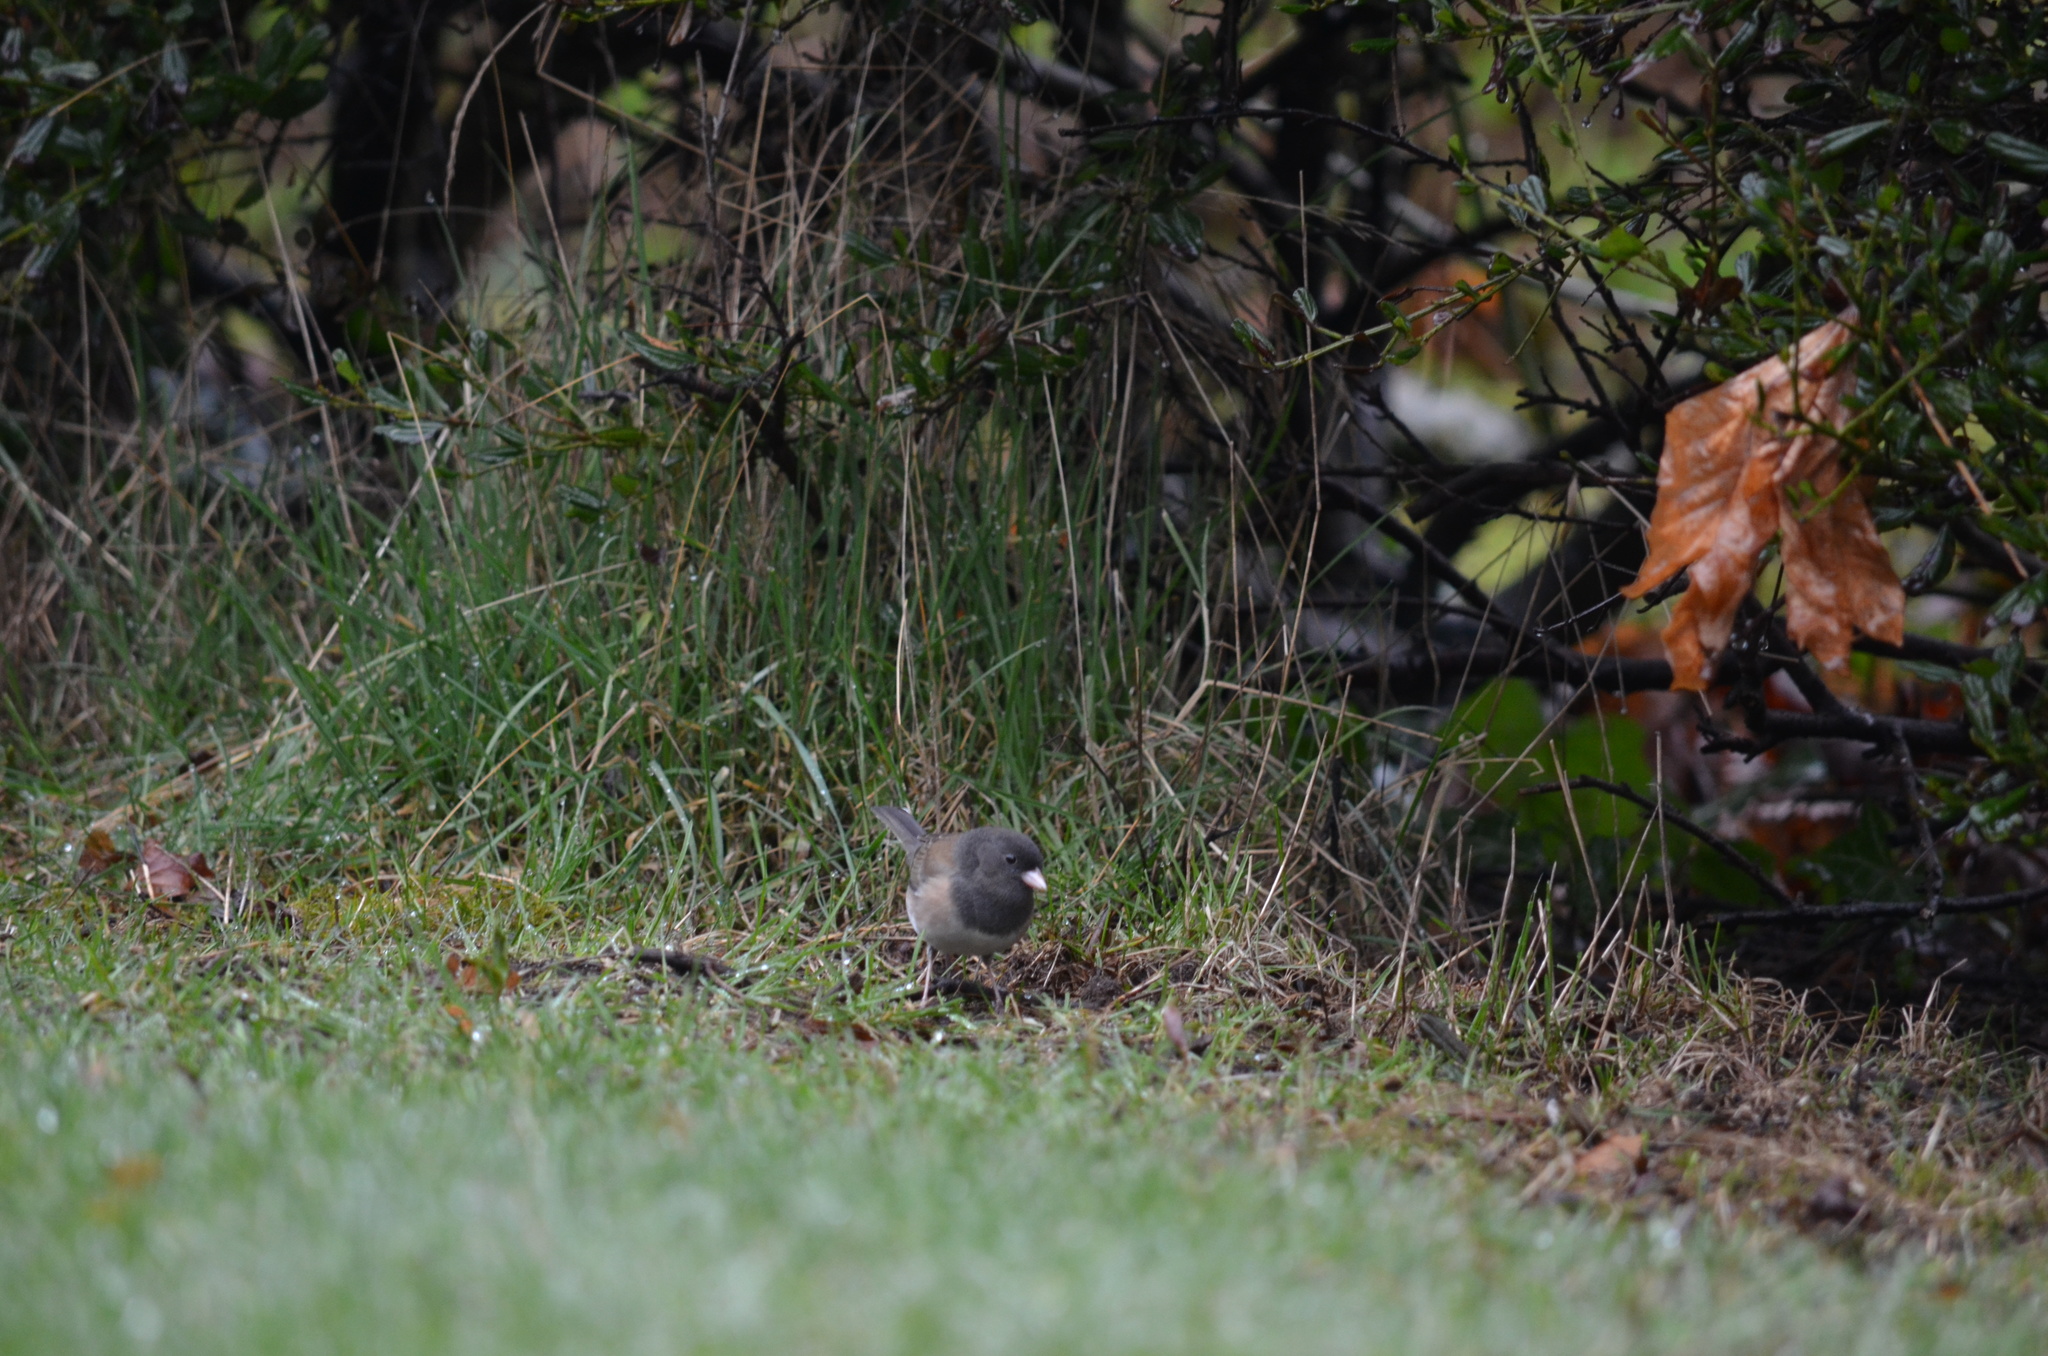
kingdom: Animalia
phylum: Chordata
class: Aves
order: Passeriformes
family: Passerellidae
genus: Junco
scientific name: Junco hyemalis
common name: Dark-eyed junco
